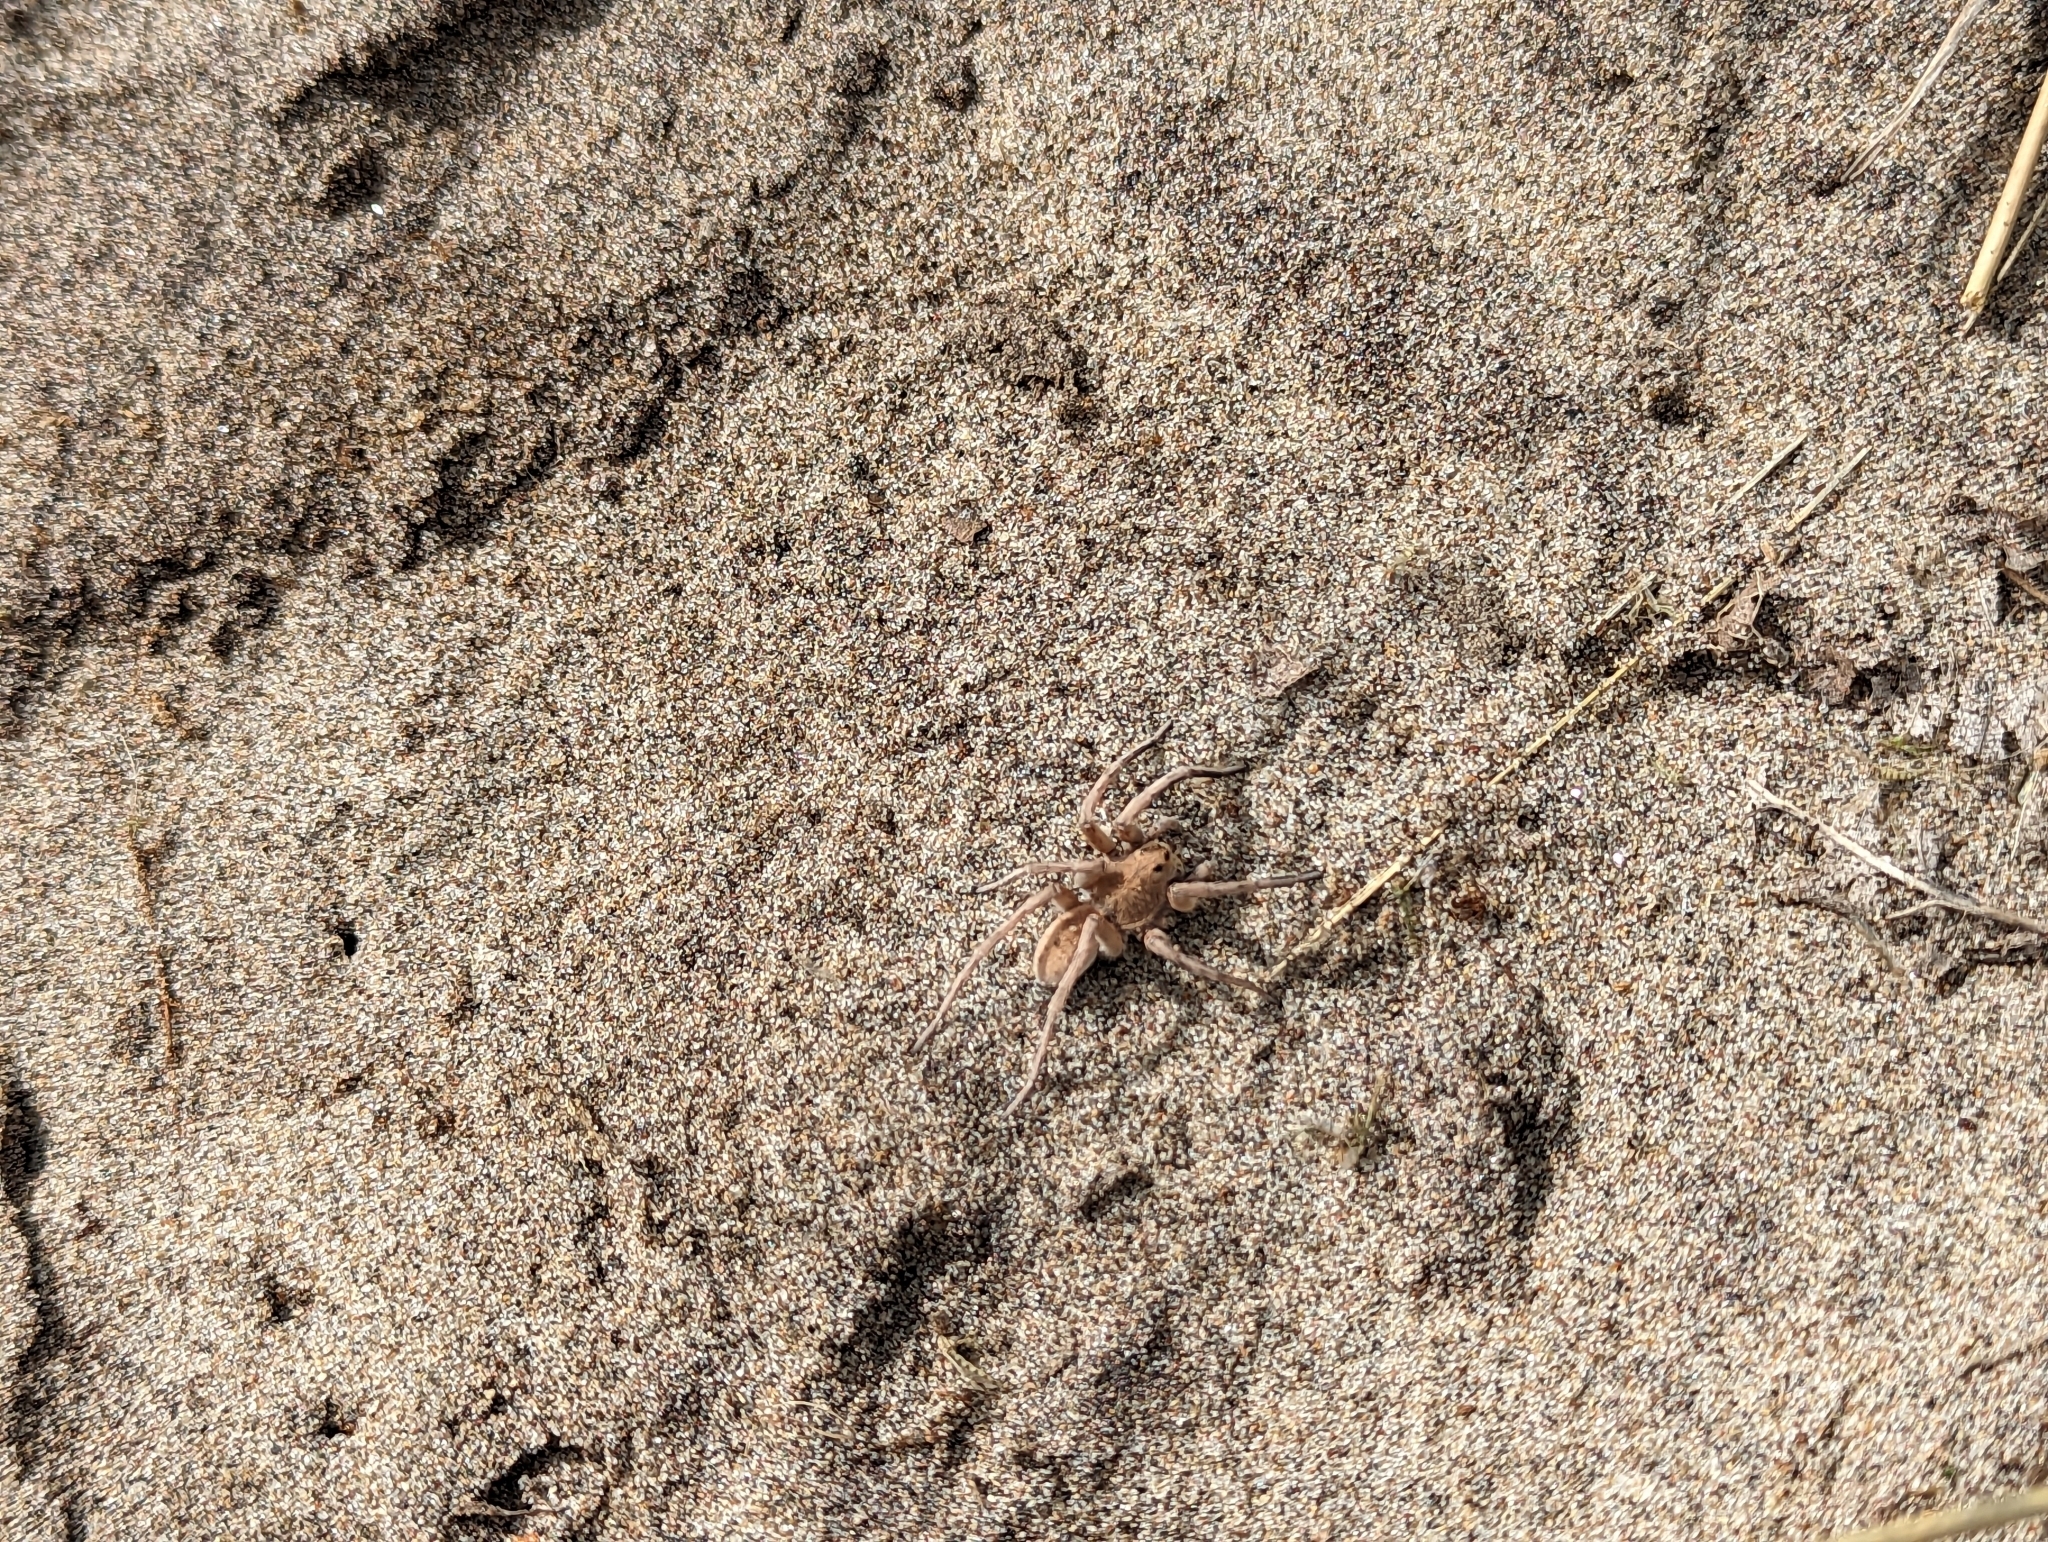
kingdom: Animalia
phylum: Arthropoda
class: Arachnida
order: Araneae
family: Lycosidae
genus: Arctosa
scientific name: Arctosa littoralis
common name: Wolf spiders
